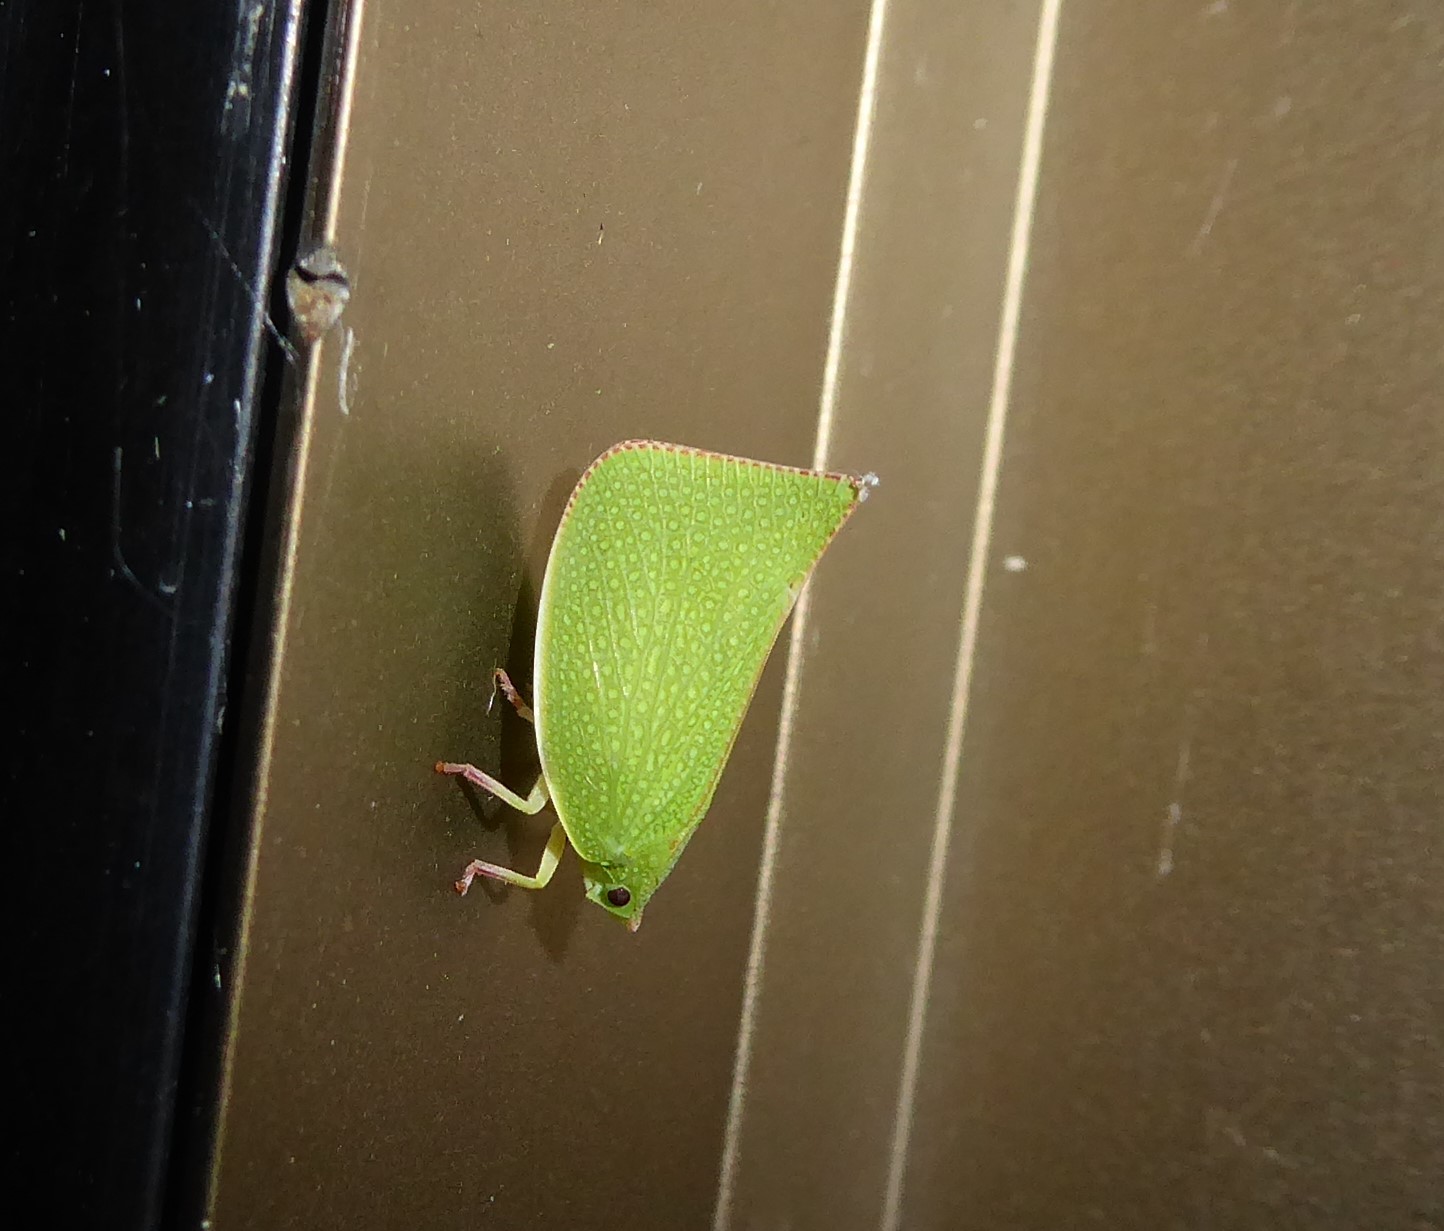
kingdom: Animalia
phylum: Arthropoda
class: Insecta
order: Hemiptera
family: Flatidae
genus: Siphanta
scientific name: Siphanta acuta
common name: Torpedo bug
